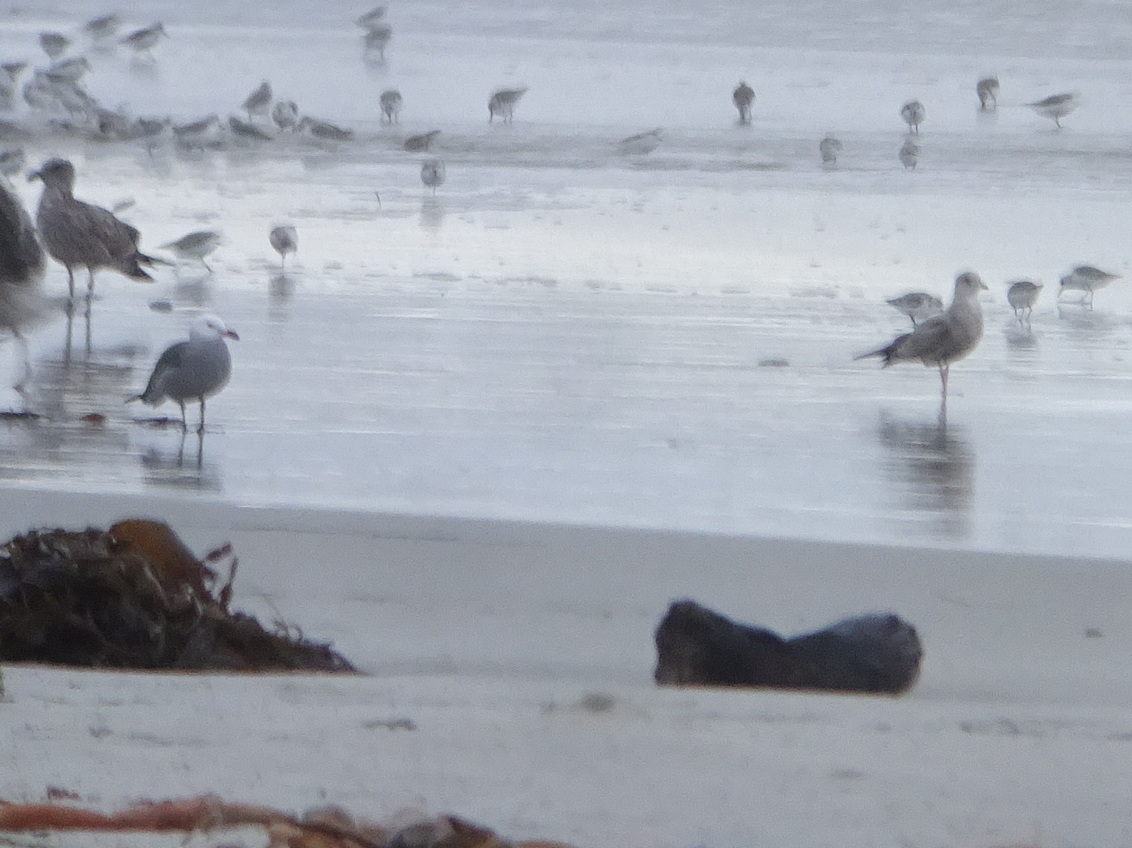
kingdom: Animalia
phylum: Chordata
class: Aves
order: Charadriiformes
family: Laridae
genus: Larus
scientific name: Larus heermanni
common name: Heermann's gull
